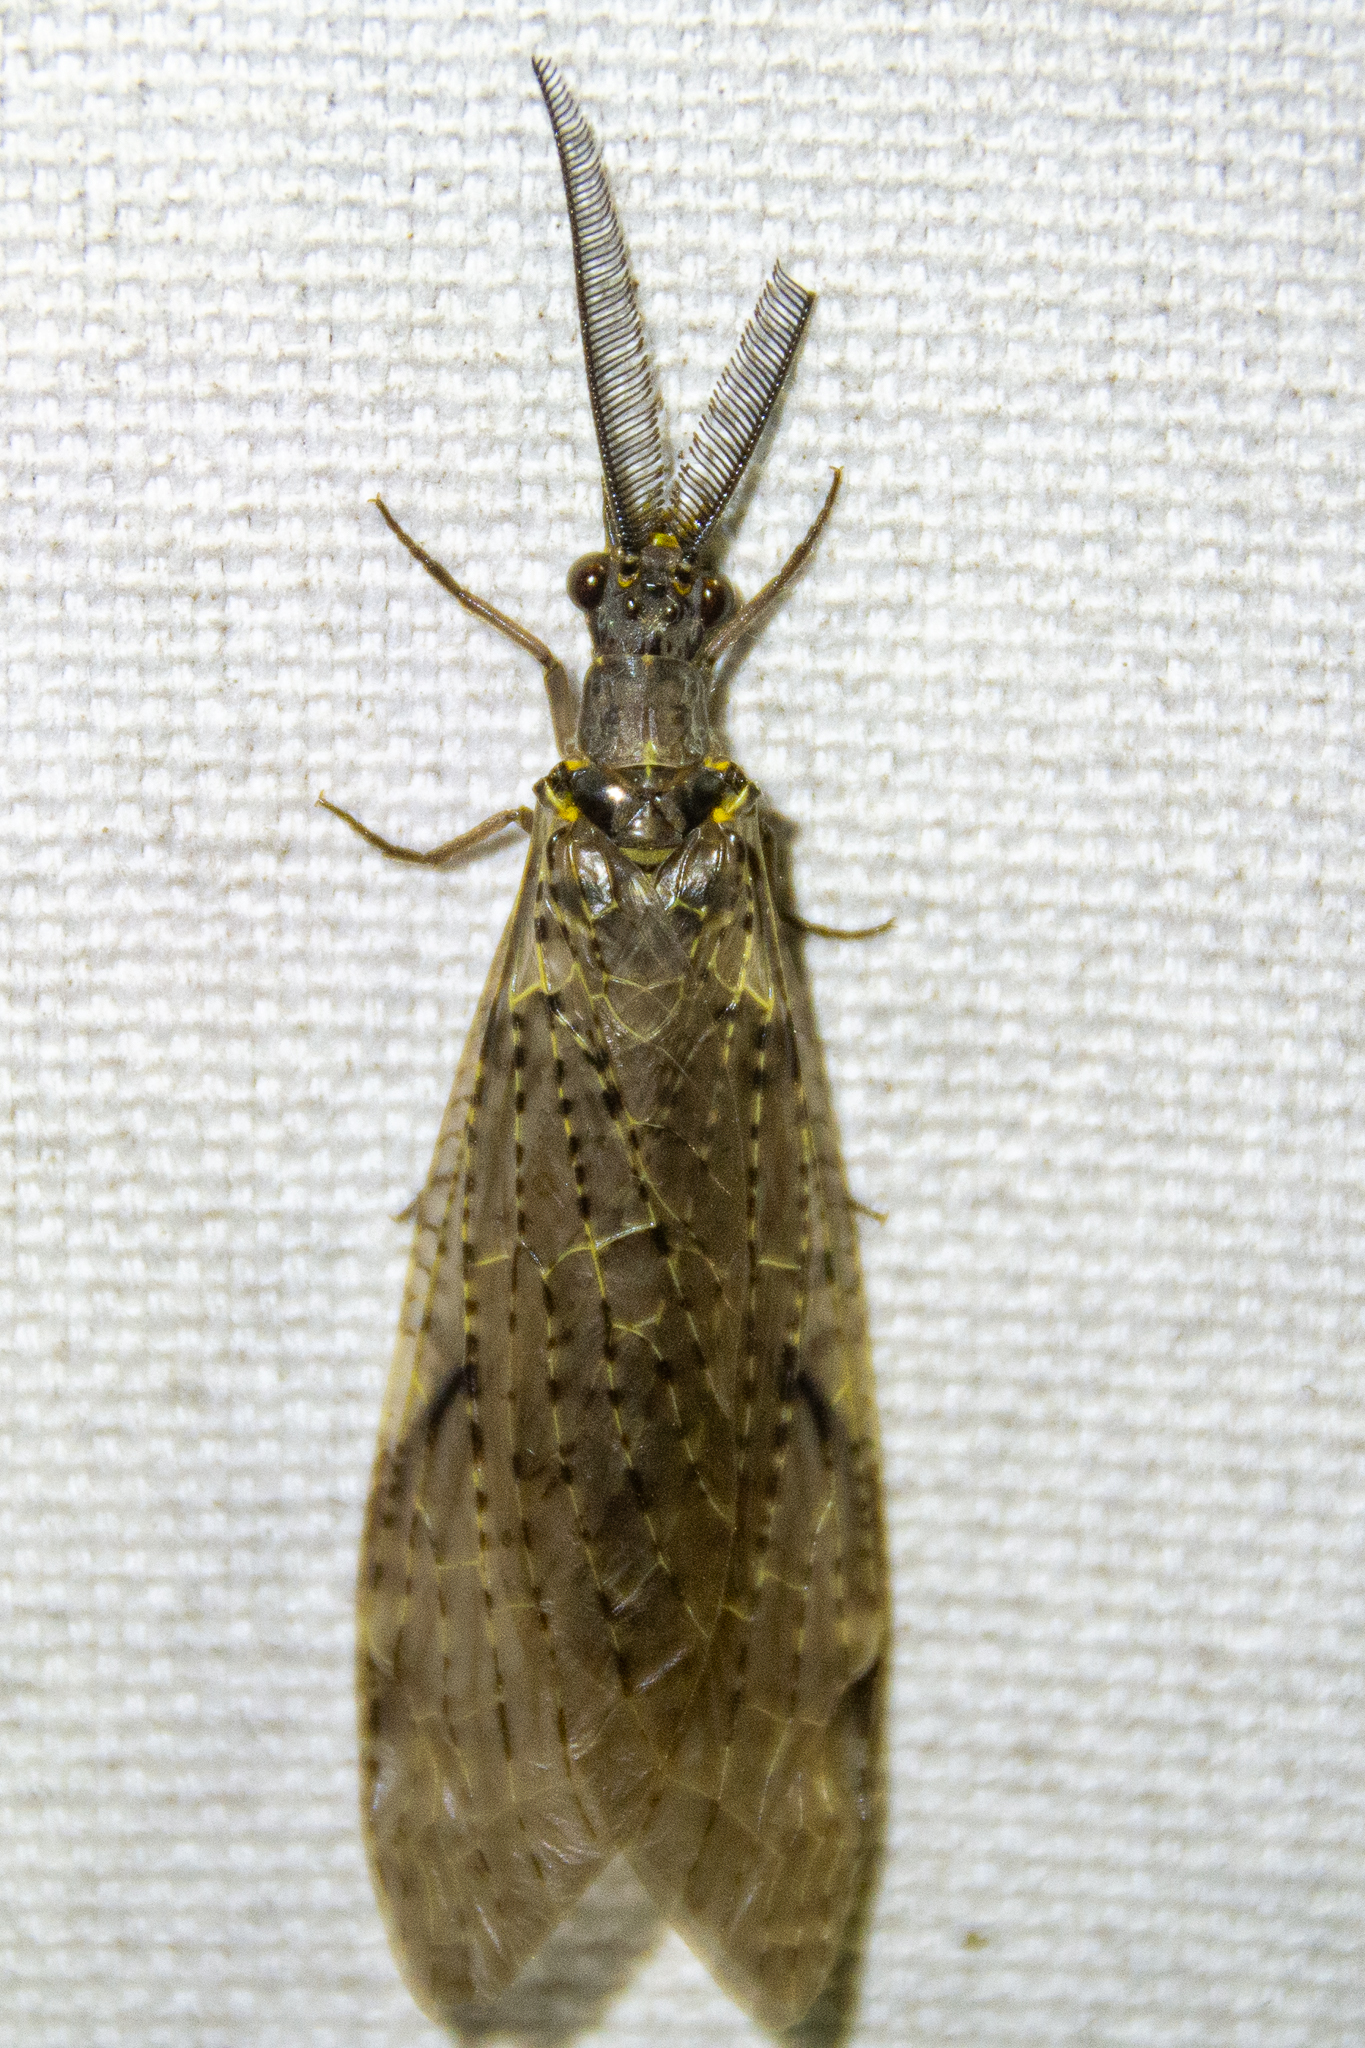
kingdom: Animalia
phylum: Arthropoda
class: Insecta
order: Megaloptera
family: Corydalidae
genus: Chauliodes
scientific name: Chauliodes rastricornis
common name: Spring fishfly
